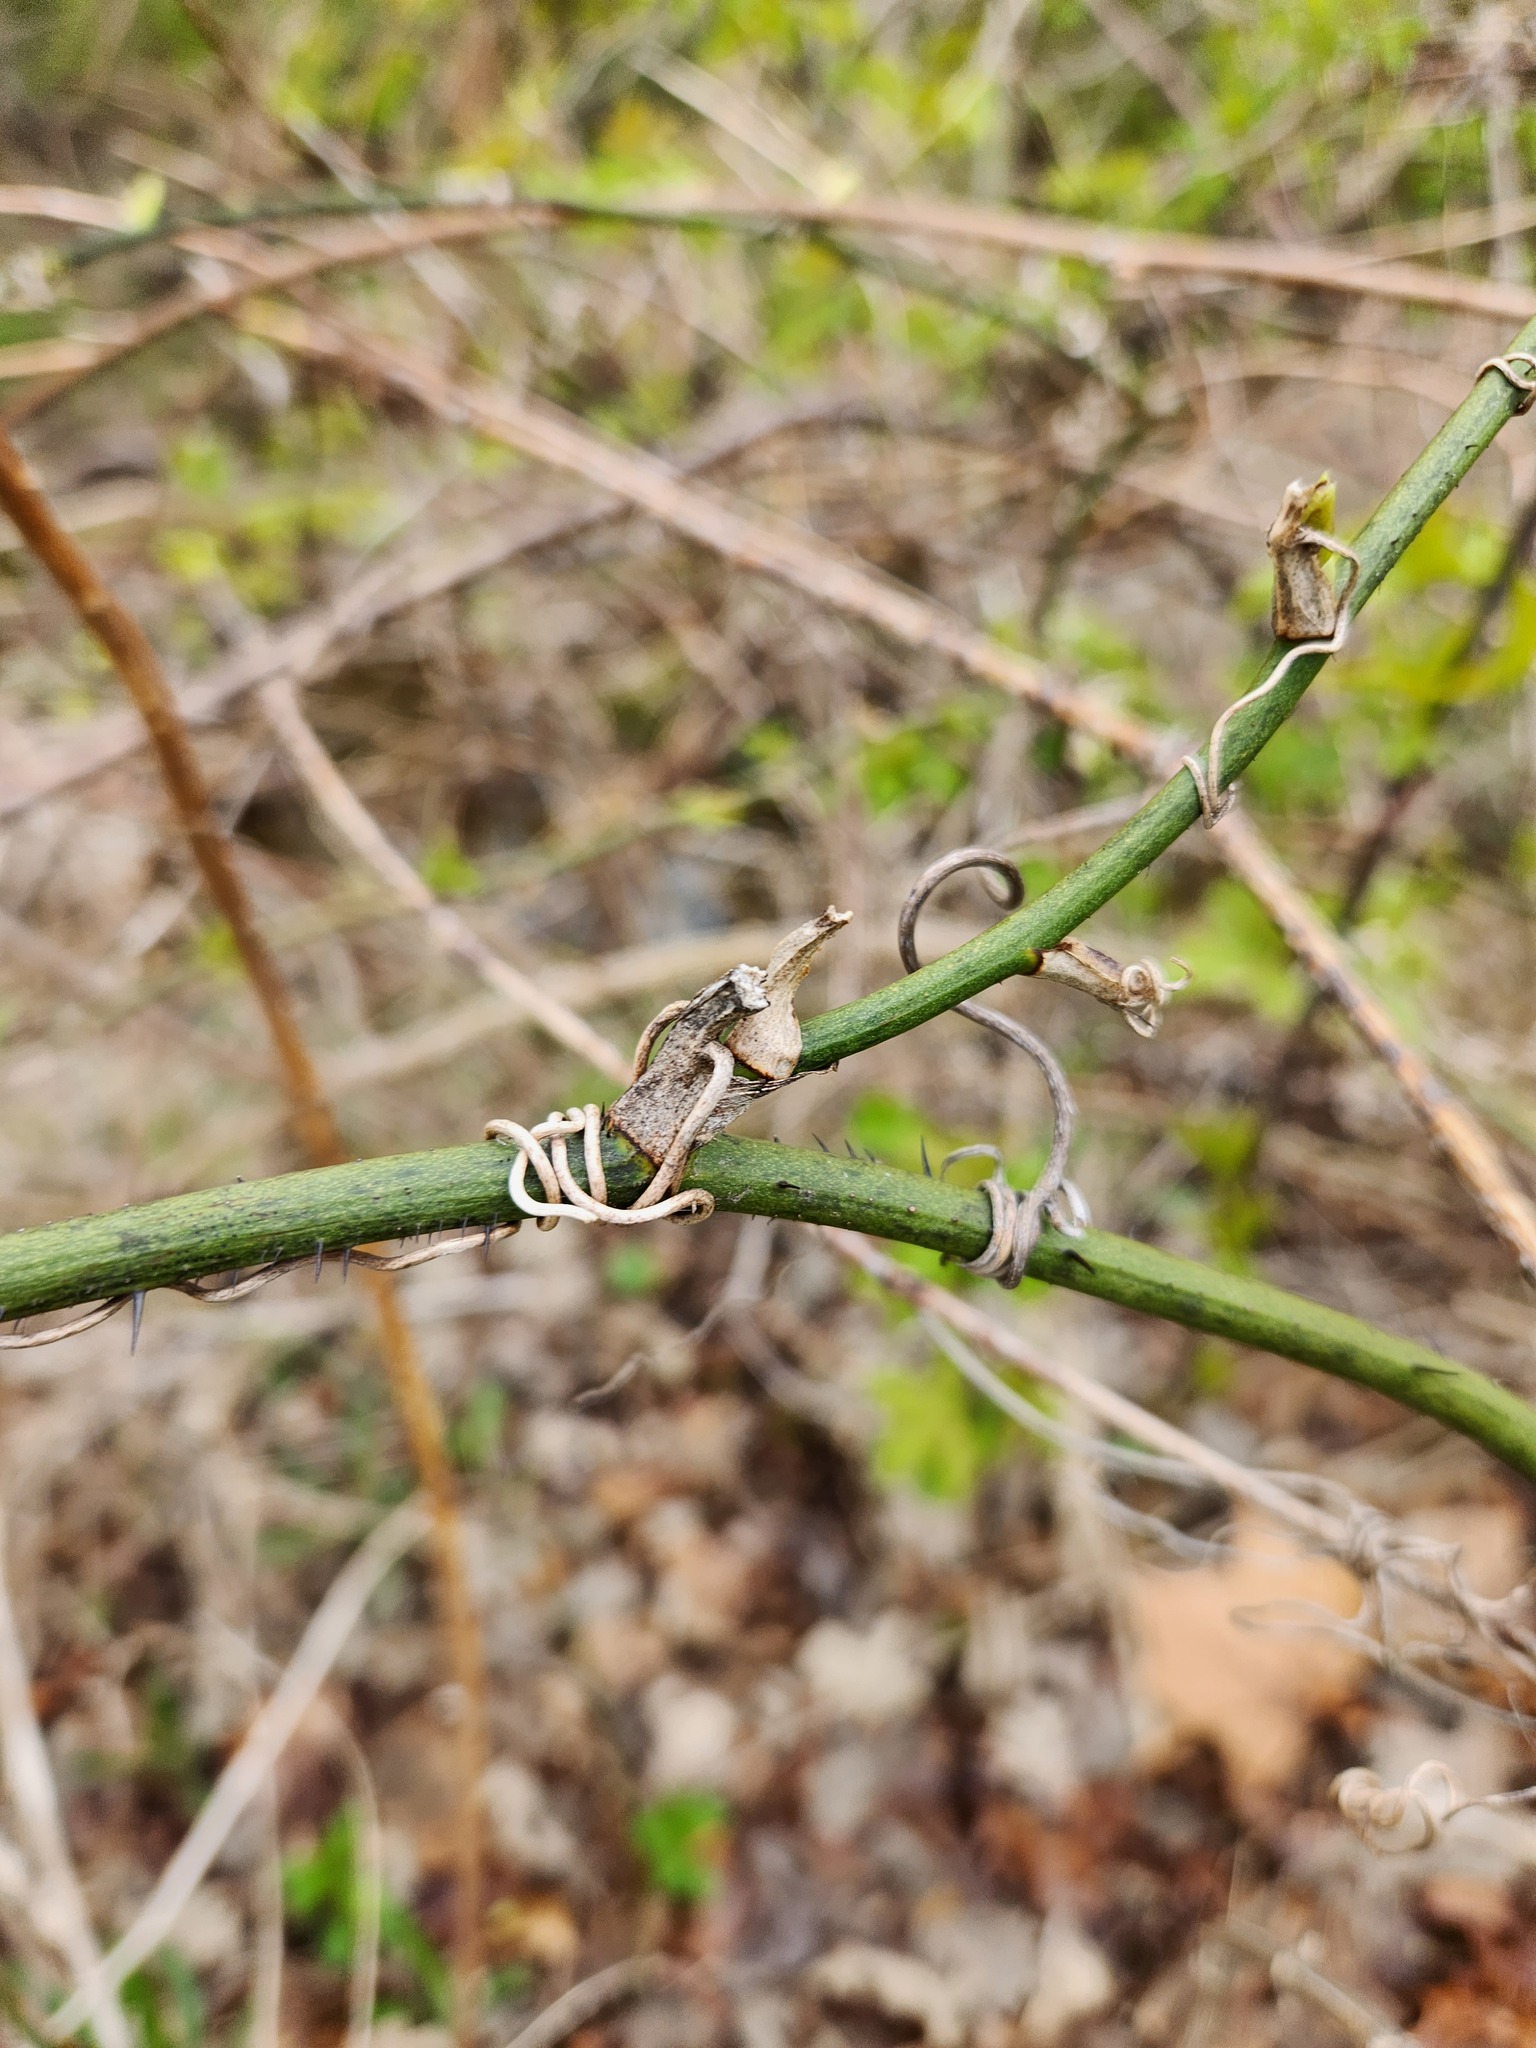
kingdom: Plantae
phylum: Tracheophyta
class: Liliopsida
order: Liliales
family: Smilacaceae
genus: Smilax
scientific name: Smilax tamnoides
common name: Hellfetter
